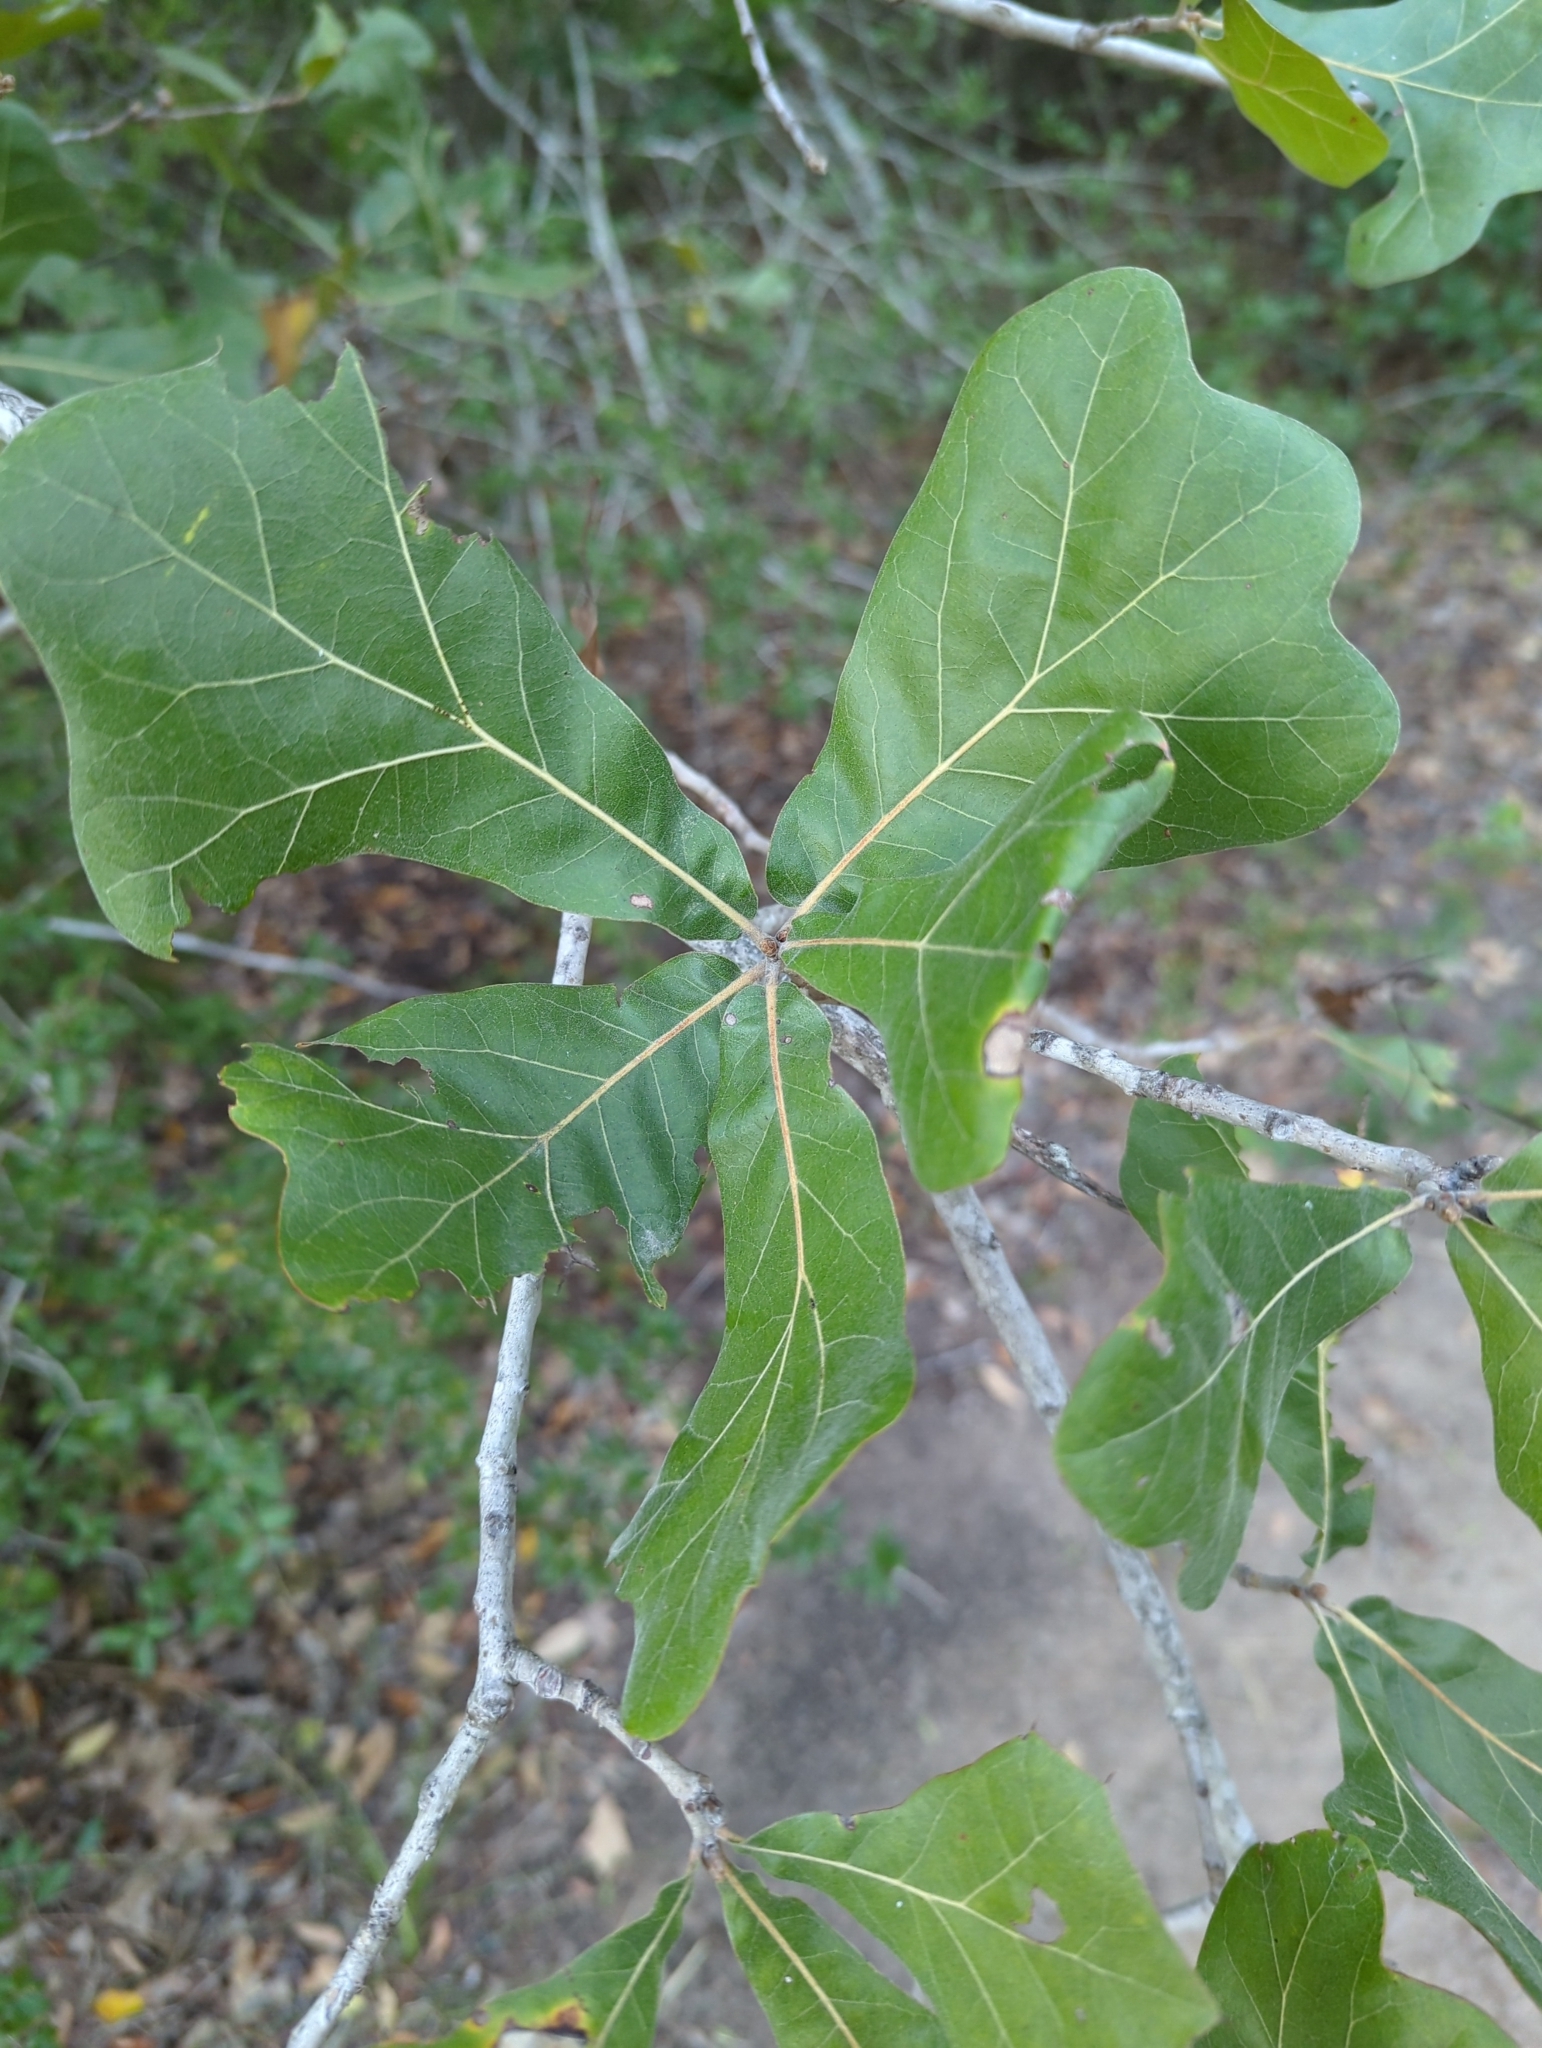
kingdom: Plantae
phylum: Tracheophyta
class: Magnoliopsida
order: Fagales
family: Fagaceae
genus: Quercus
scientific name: Quercus marilandica
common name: Blackjack oak
